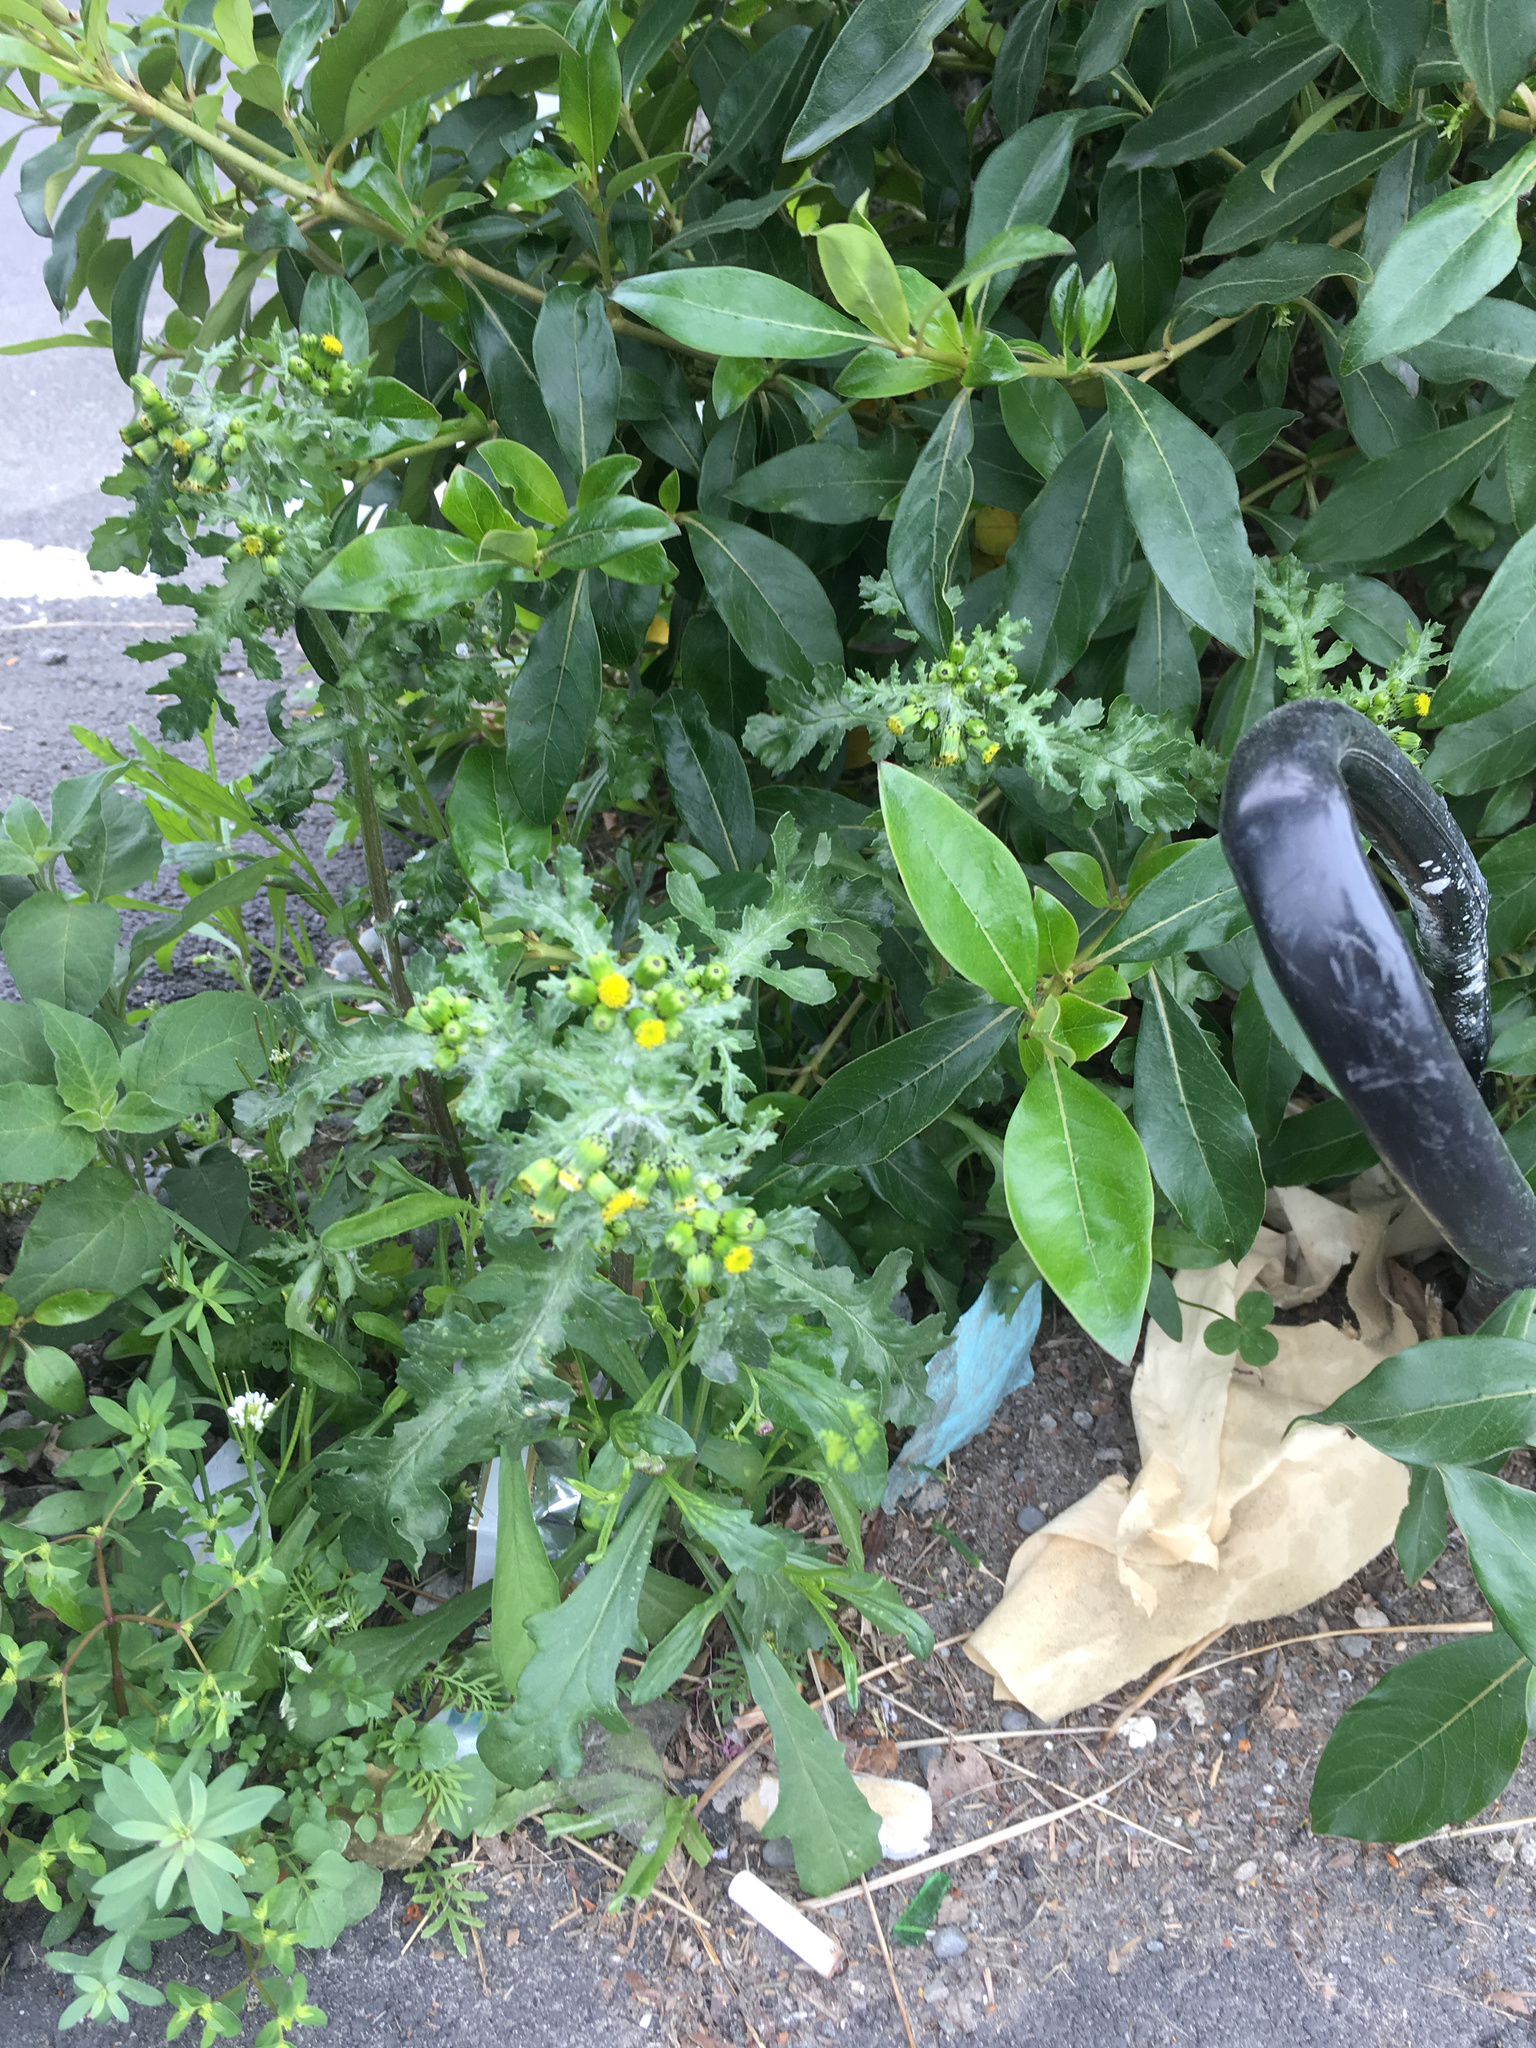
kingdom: Plantae
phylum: Tracheophyta
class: Magnoliopsida
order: Asterales
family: Asteraceae
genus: Senecio
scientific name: Senecio vulgaris
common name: Old-man-in-the-spring
